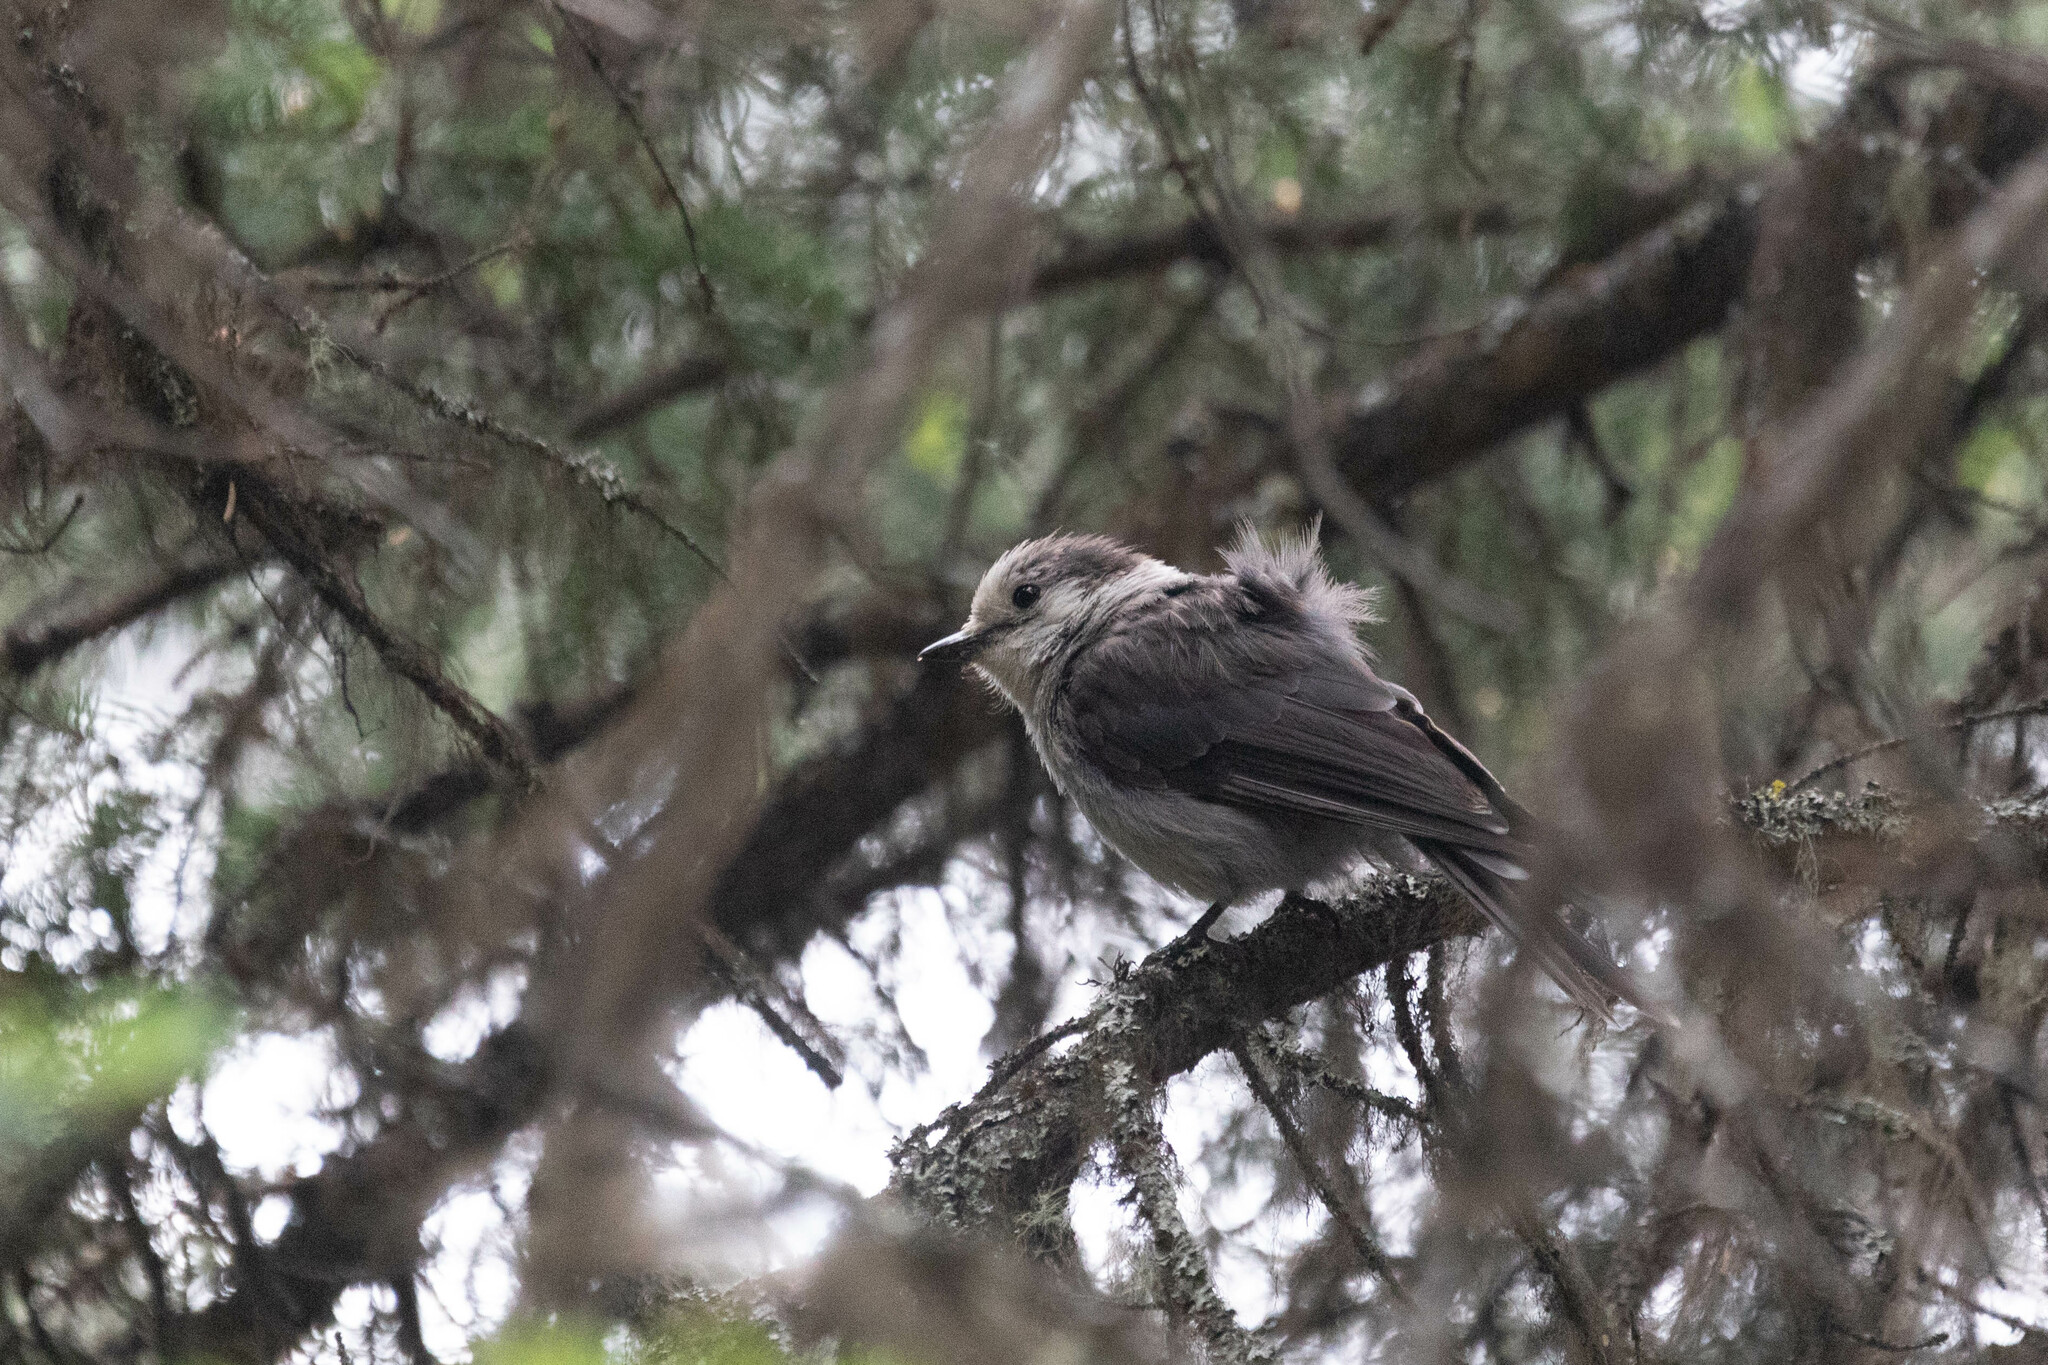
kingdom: Animalia
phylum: Chordata
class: Aves
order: Passeriformes
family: Corvidae
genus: Perisoreus
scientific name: Perisoreus canadensis
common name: Gray jay
